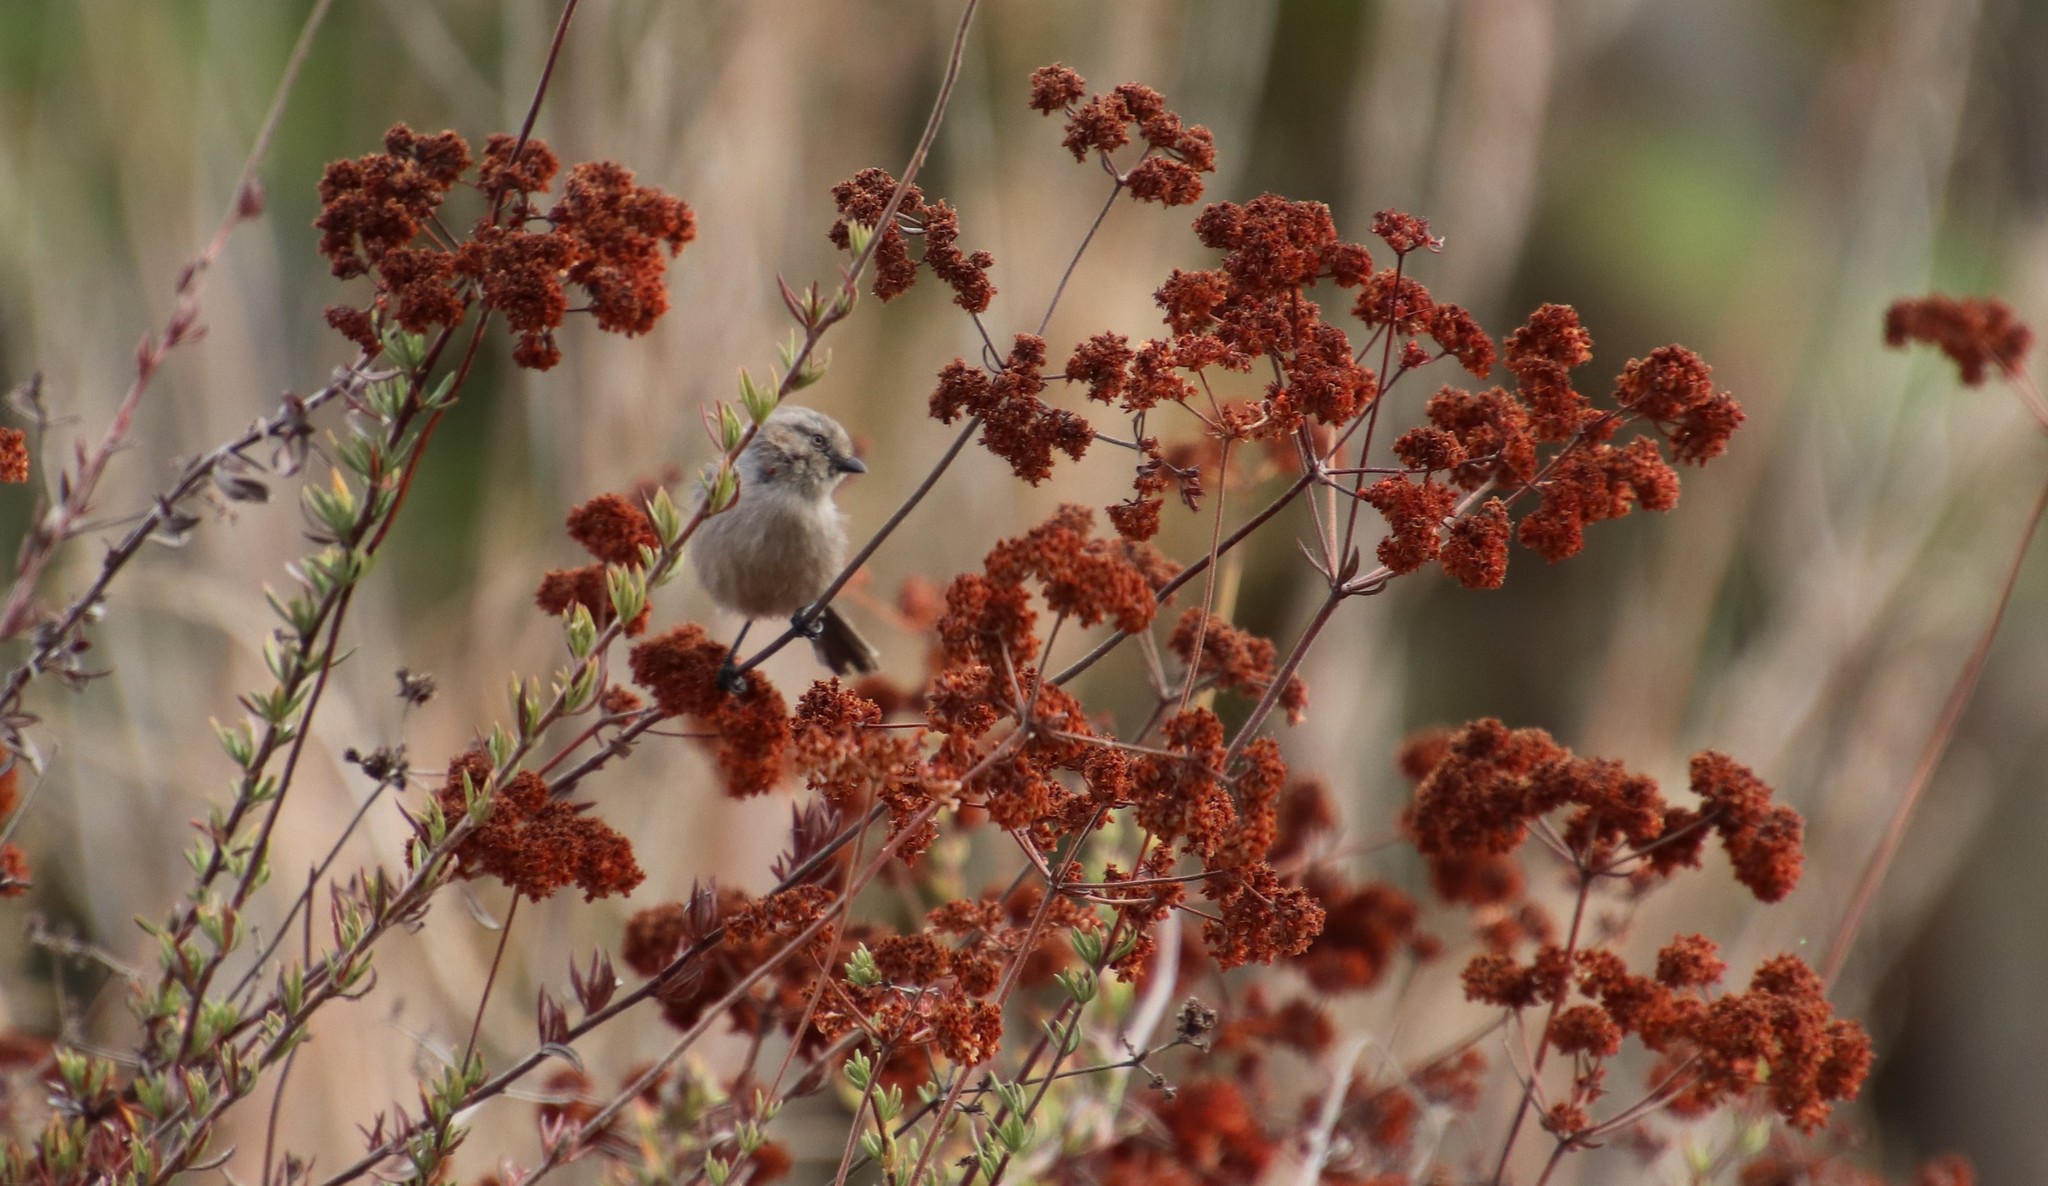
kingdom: Animalia
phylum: Chordata
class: Aves
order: Passeriformes
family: Aegithalidae
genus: Psaltriparus
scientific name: Psaltriparus minimus
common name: American bushtit
